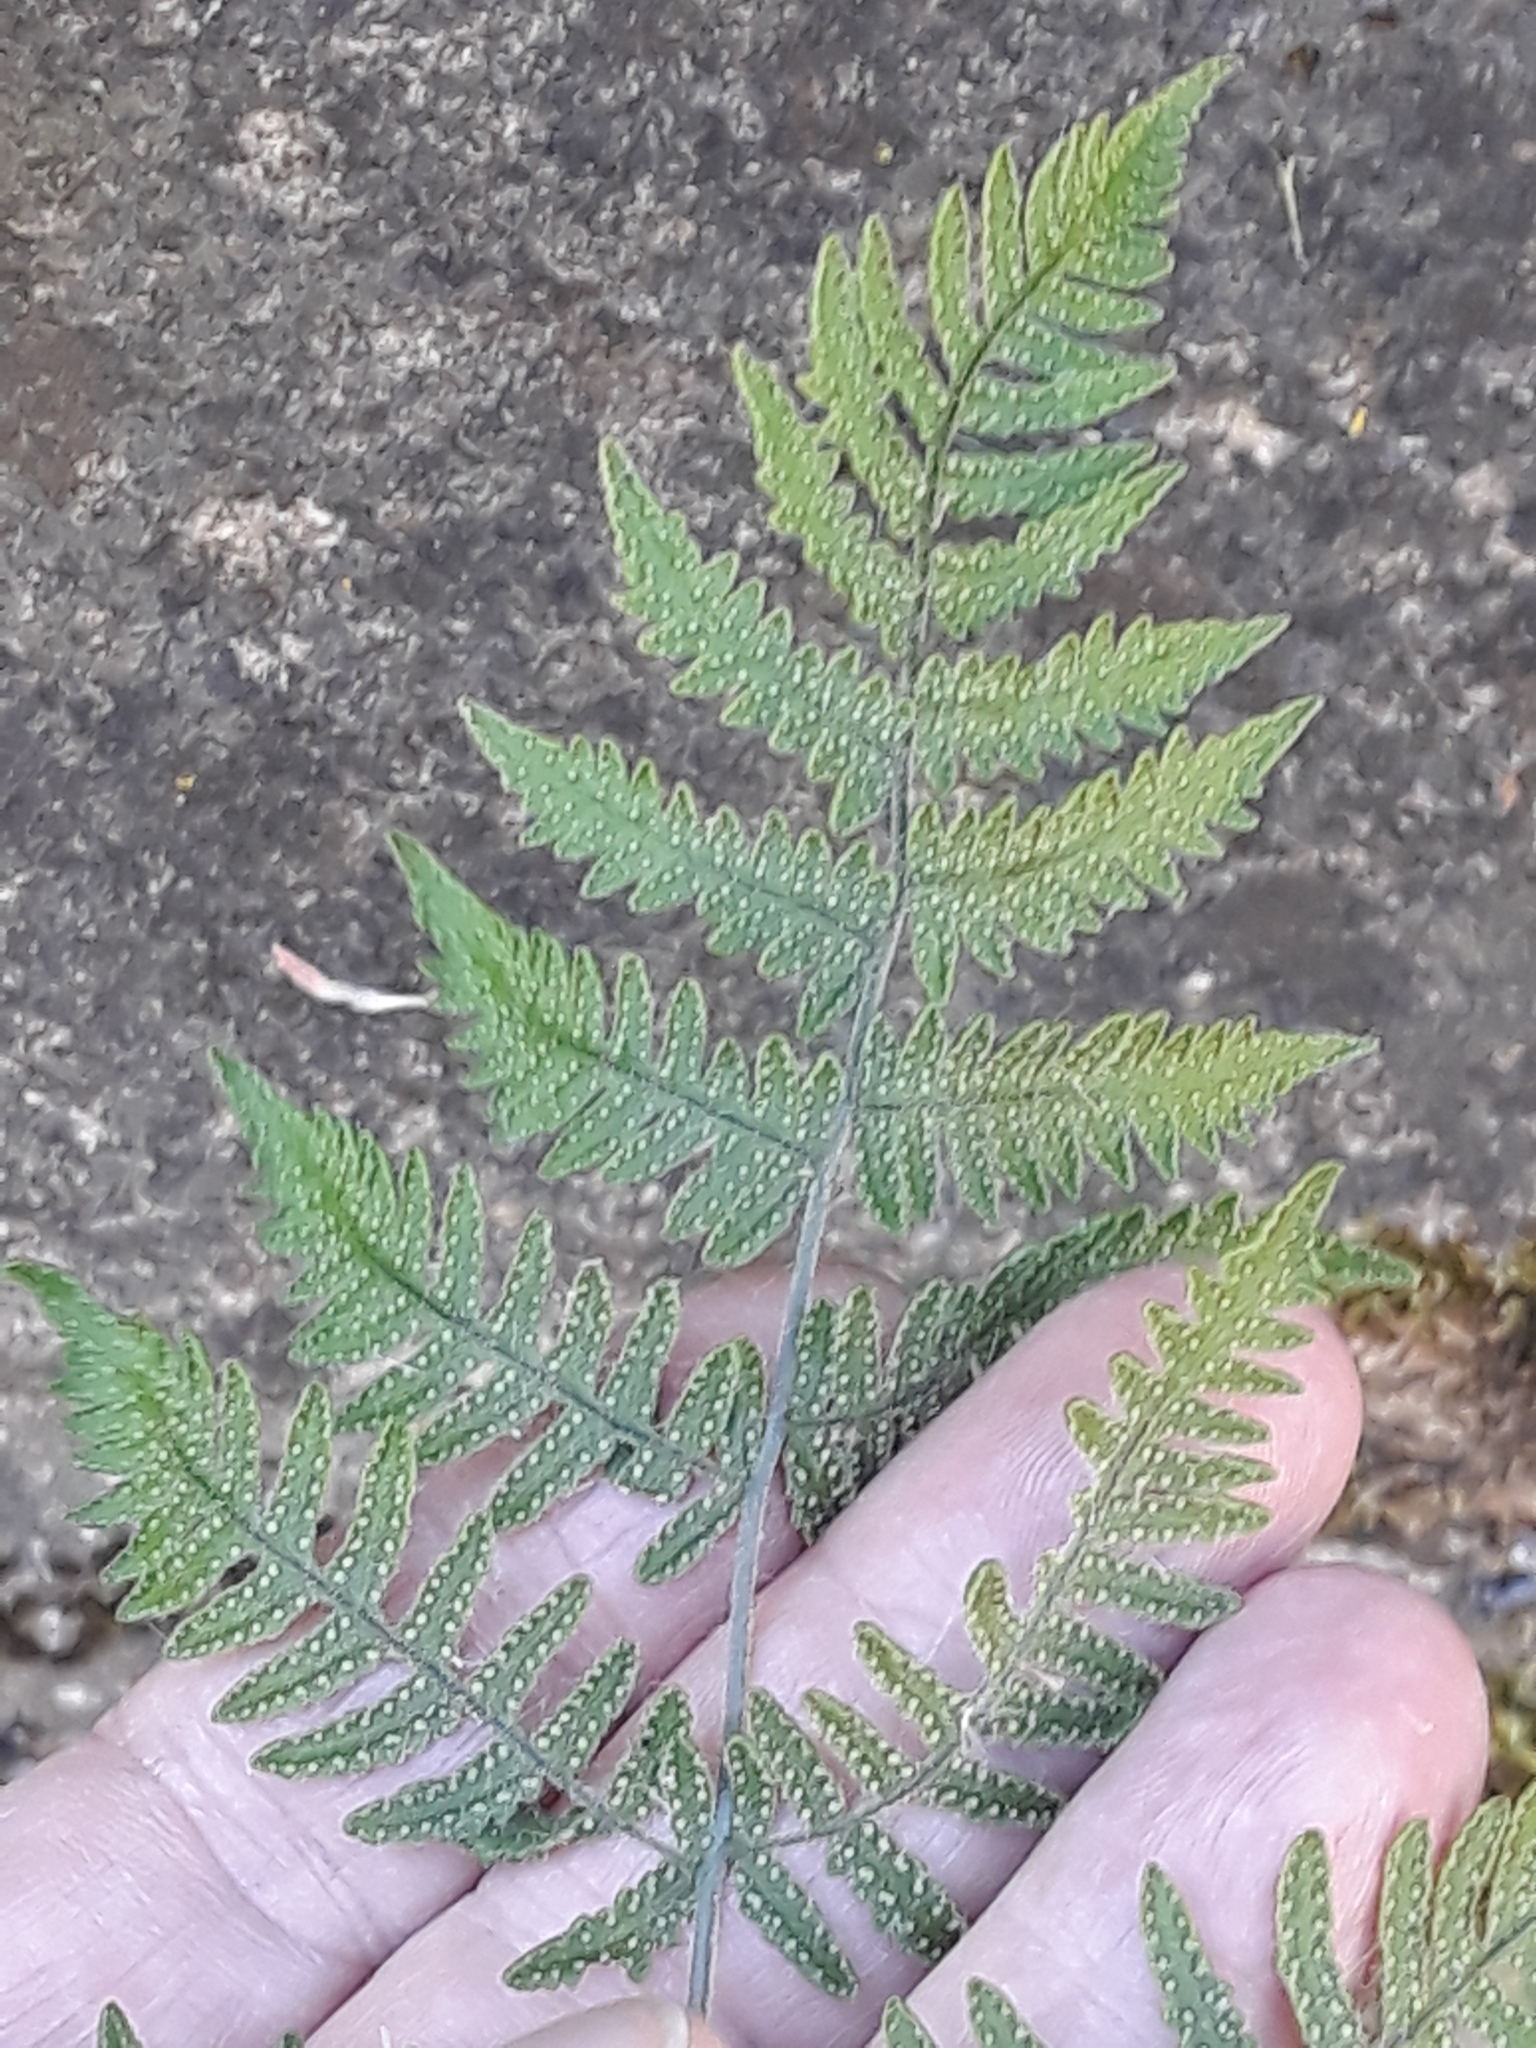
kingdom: Plantae
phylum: Tracheophyta
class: Polypodiopsida
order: Polypodiales
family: Cystopteridaceae
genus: Gymnocarpium
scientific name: Gymnocarpium robertianum
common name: Limestone fern
